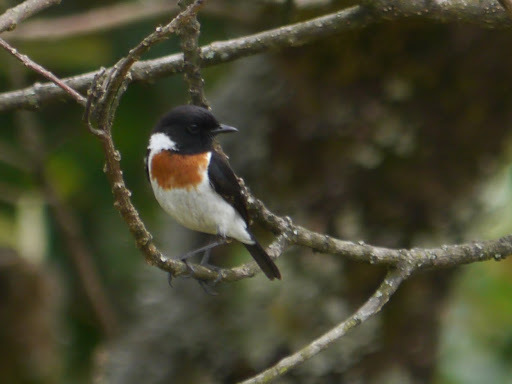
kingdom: Animalia
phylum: Chordata
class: Aves
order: Passeriformes
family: Muscicapidae
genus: Saxicola
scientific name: Saxicola torquatus
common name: African stonechat
